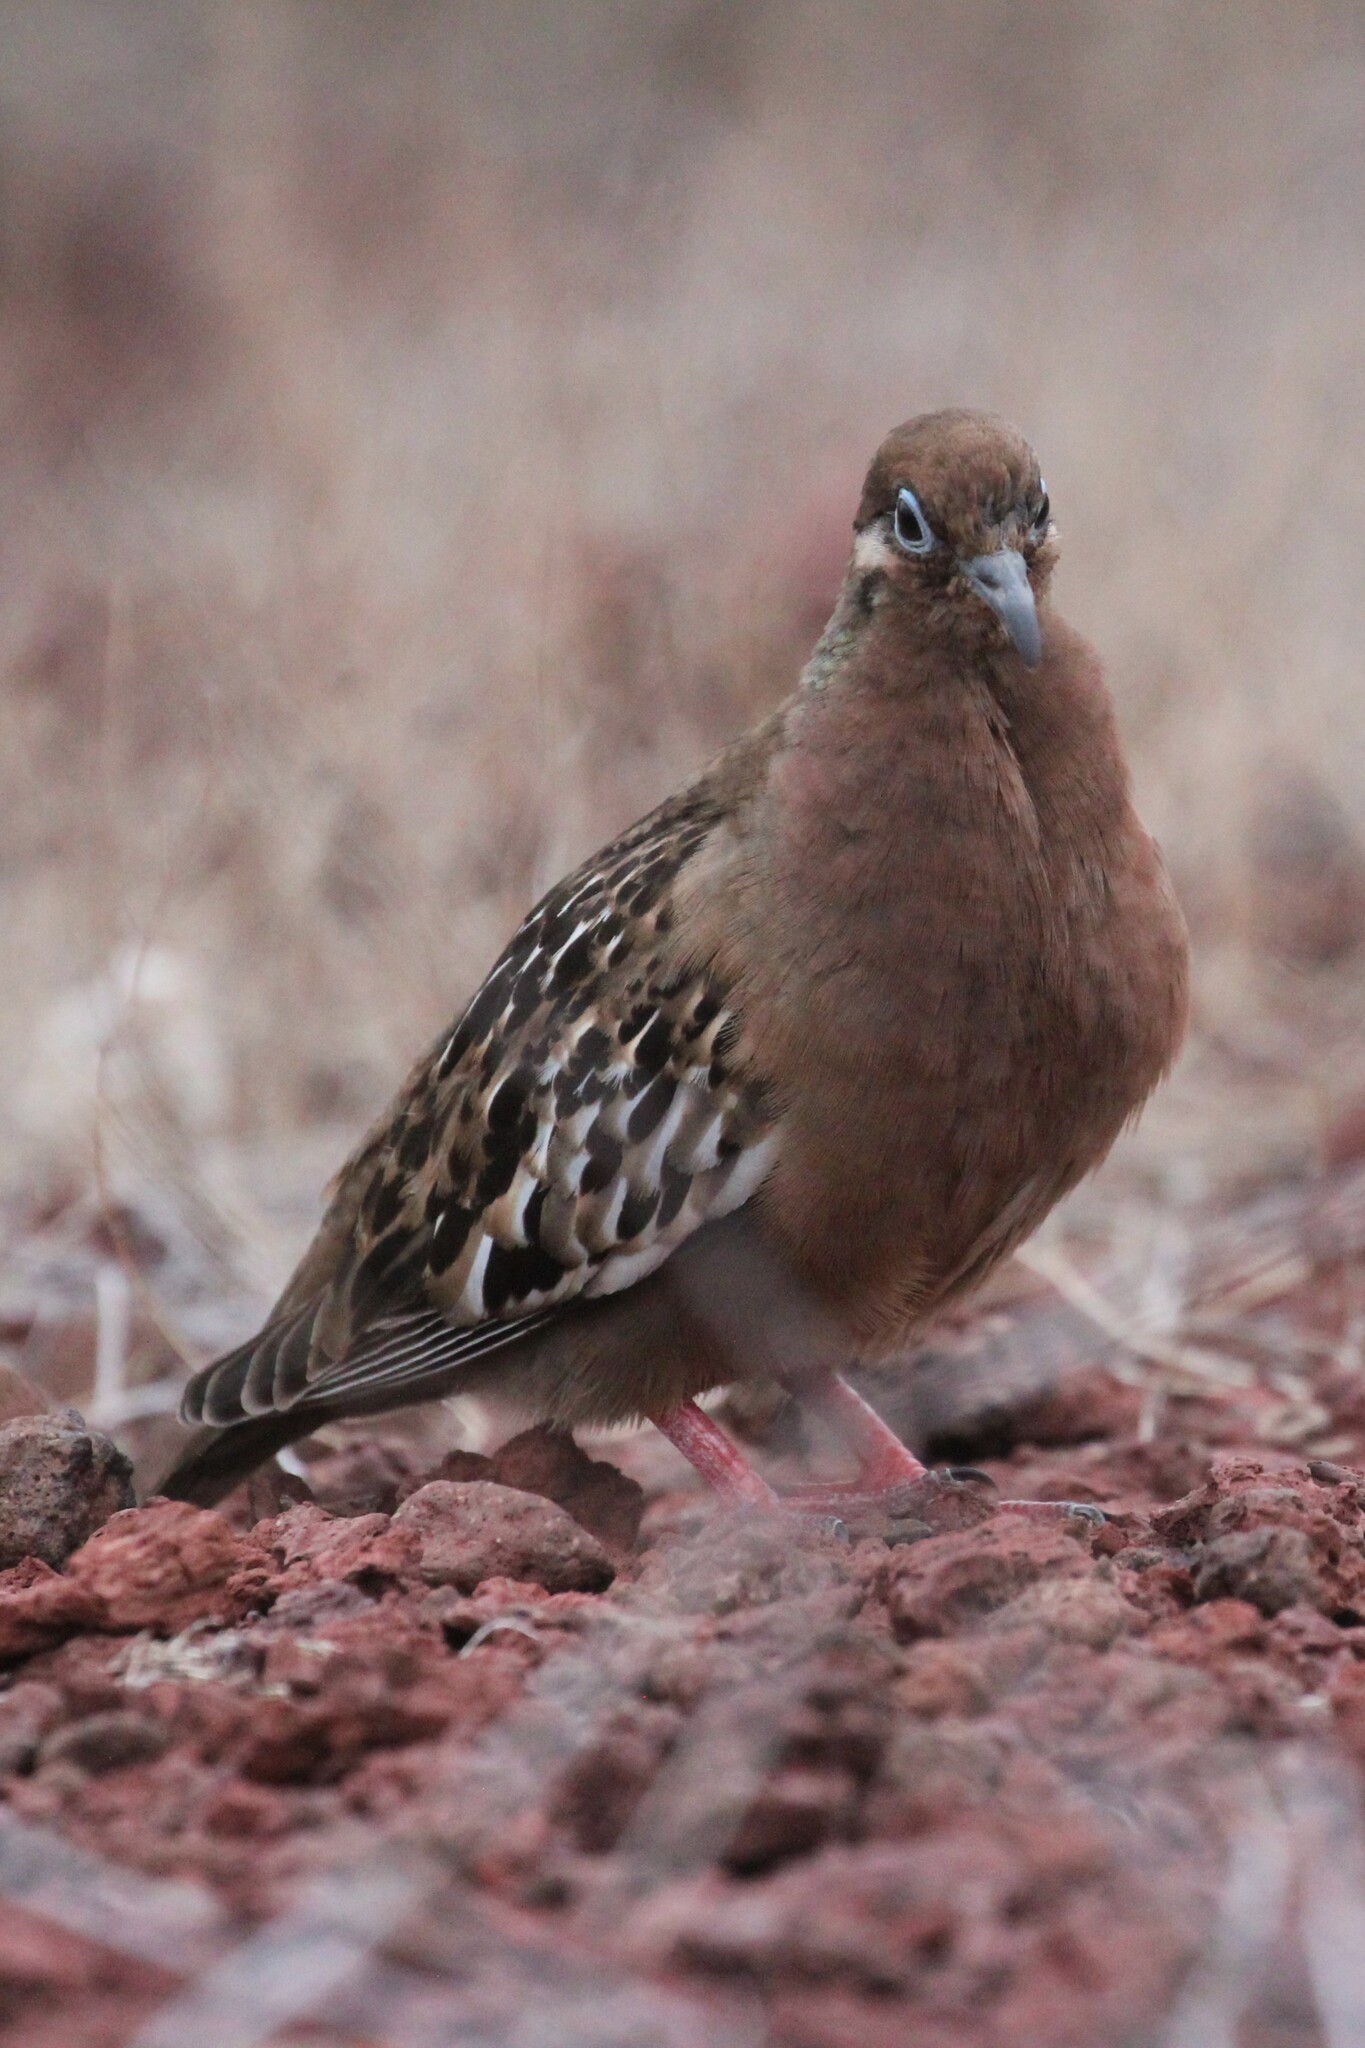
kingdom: Animalia
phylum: Chordata
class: Aves
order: Columbiformes
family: Columbidae
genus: Zenaida
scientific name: Zenaida galapagoensis
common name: Galapagos dove
